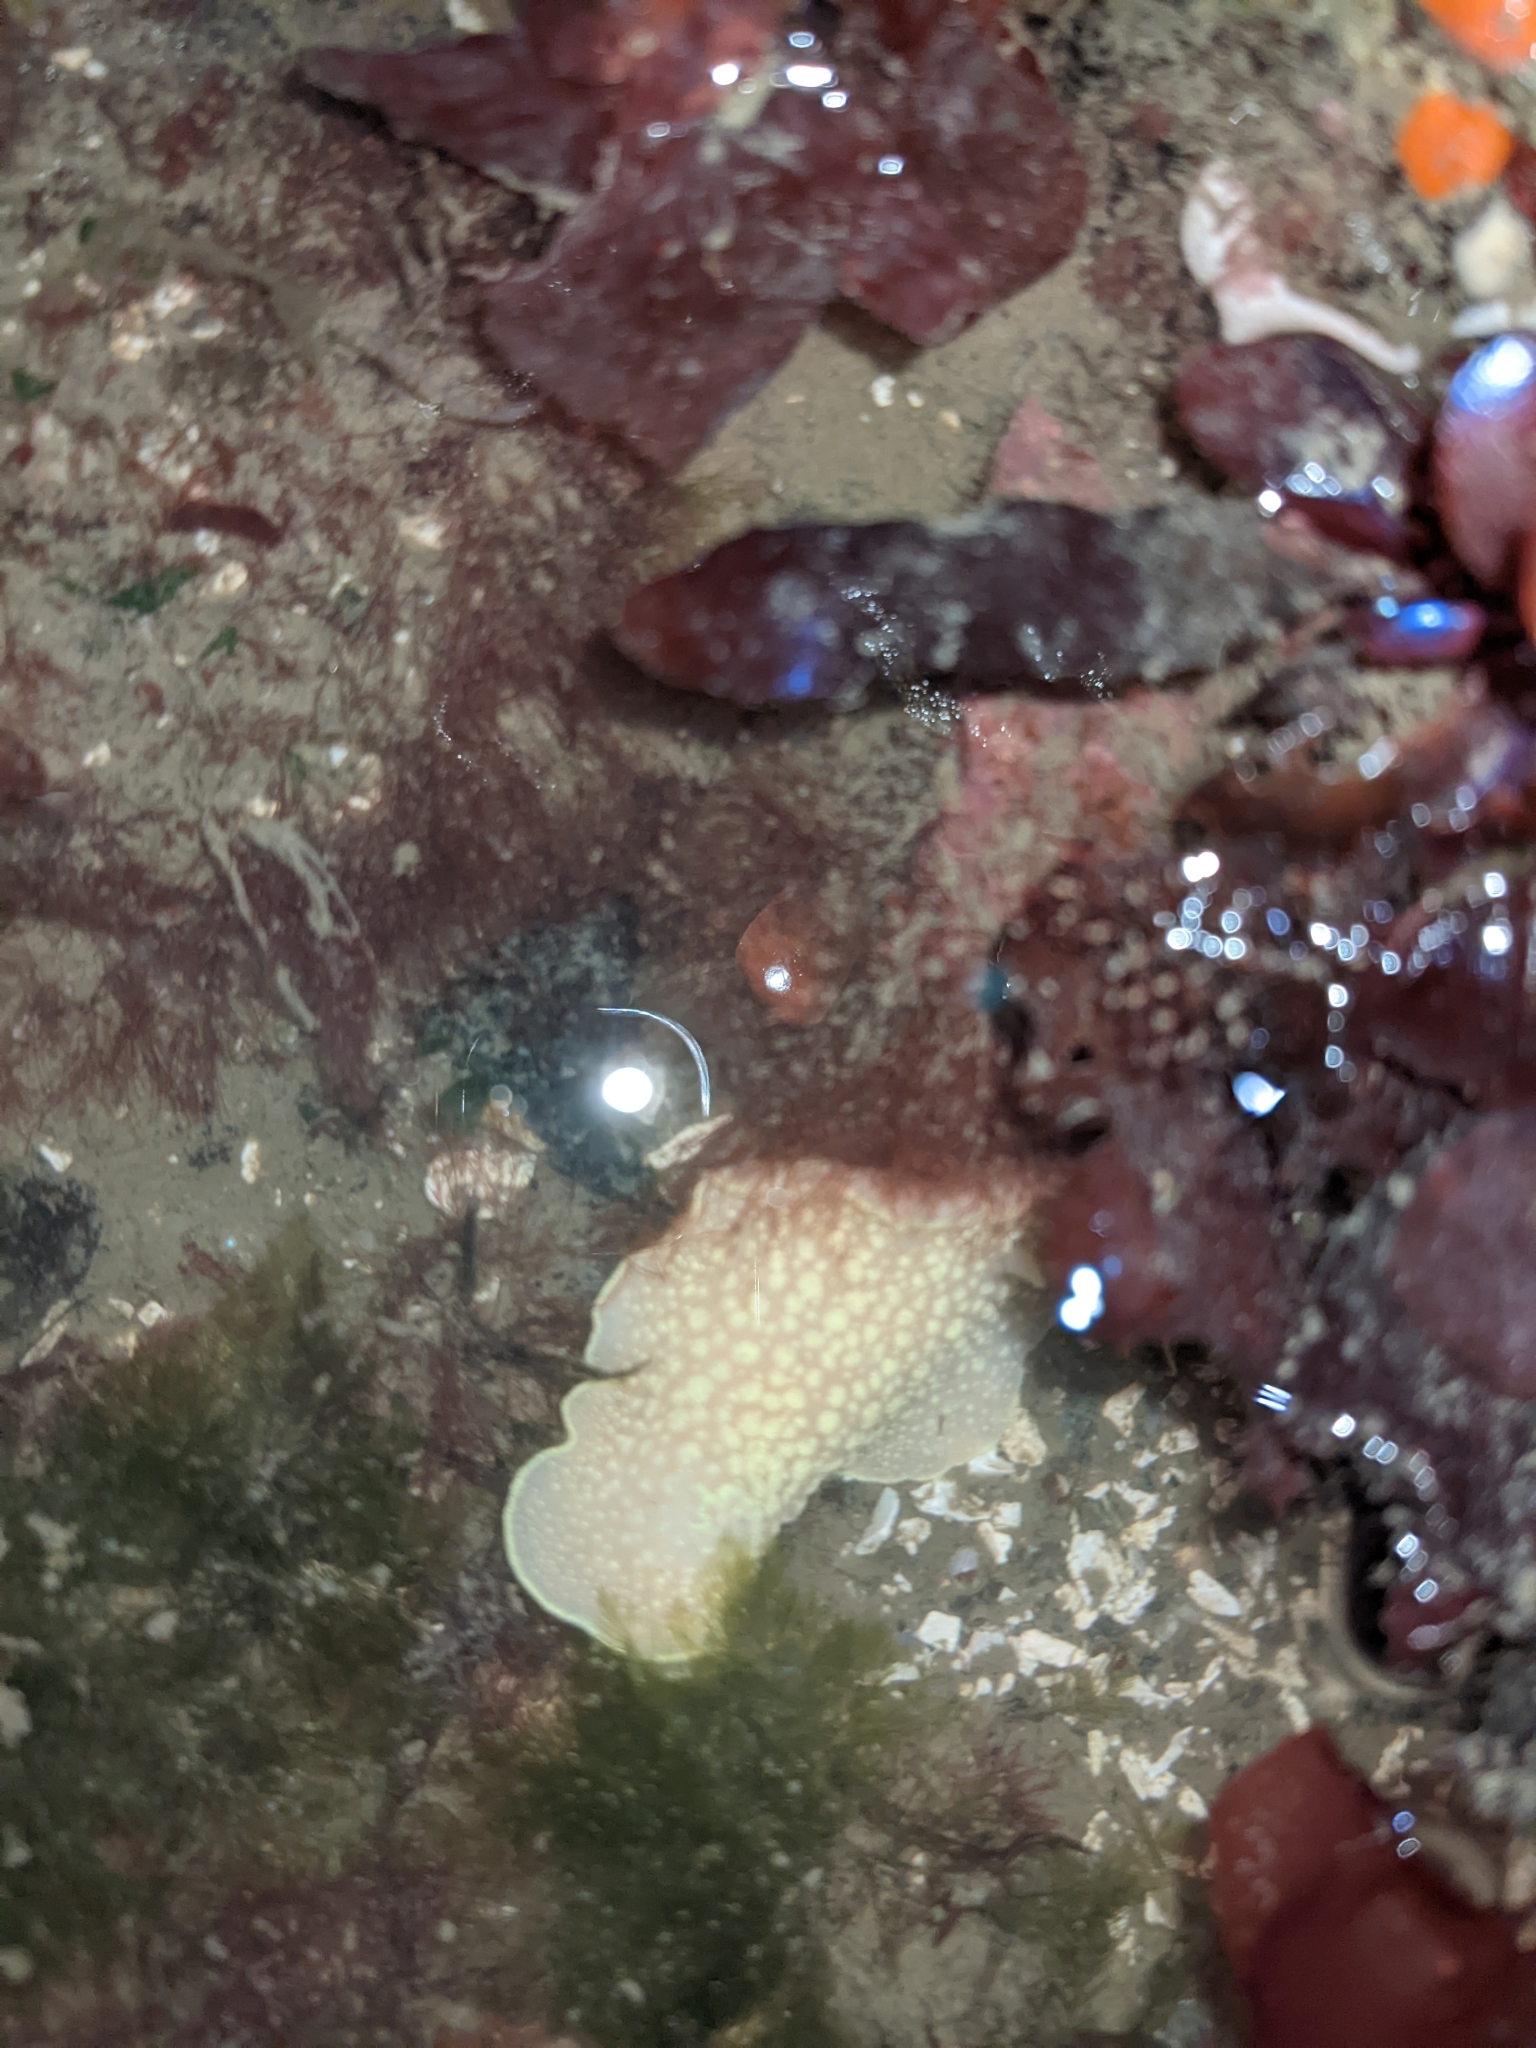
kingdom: Animalia
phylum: Mollusca
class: Gastropoda
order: Nudibranchia
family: Cadlinidae
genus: Cadlina
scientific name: Cadlina luteomarginata
